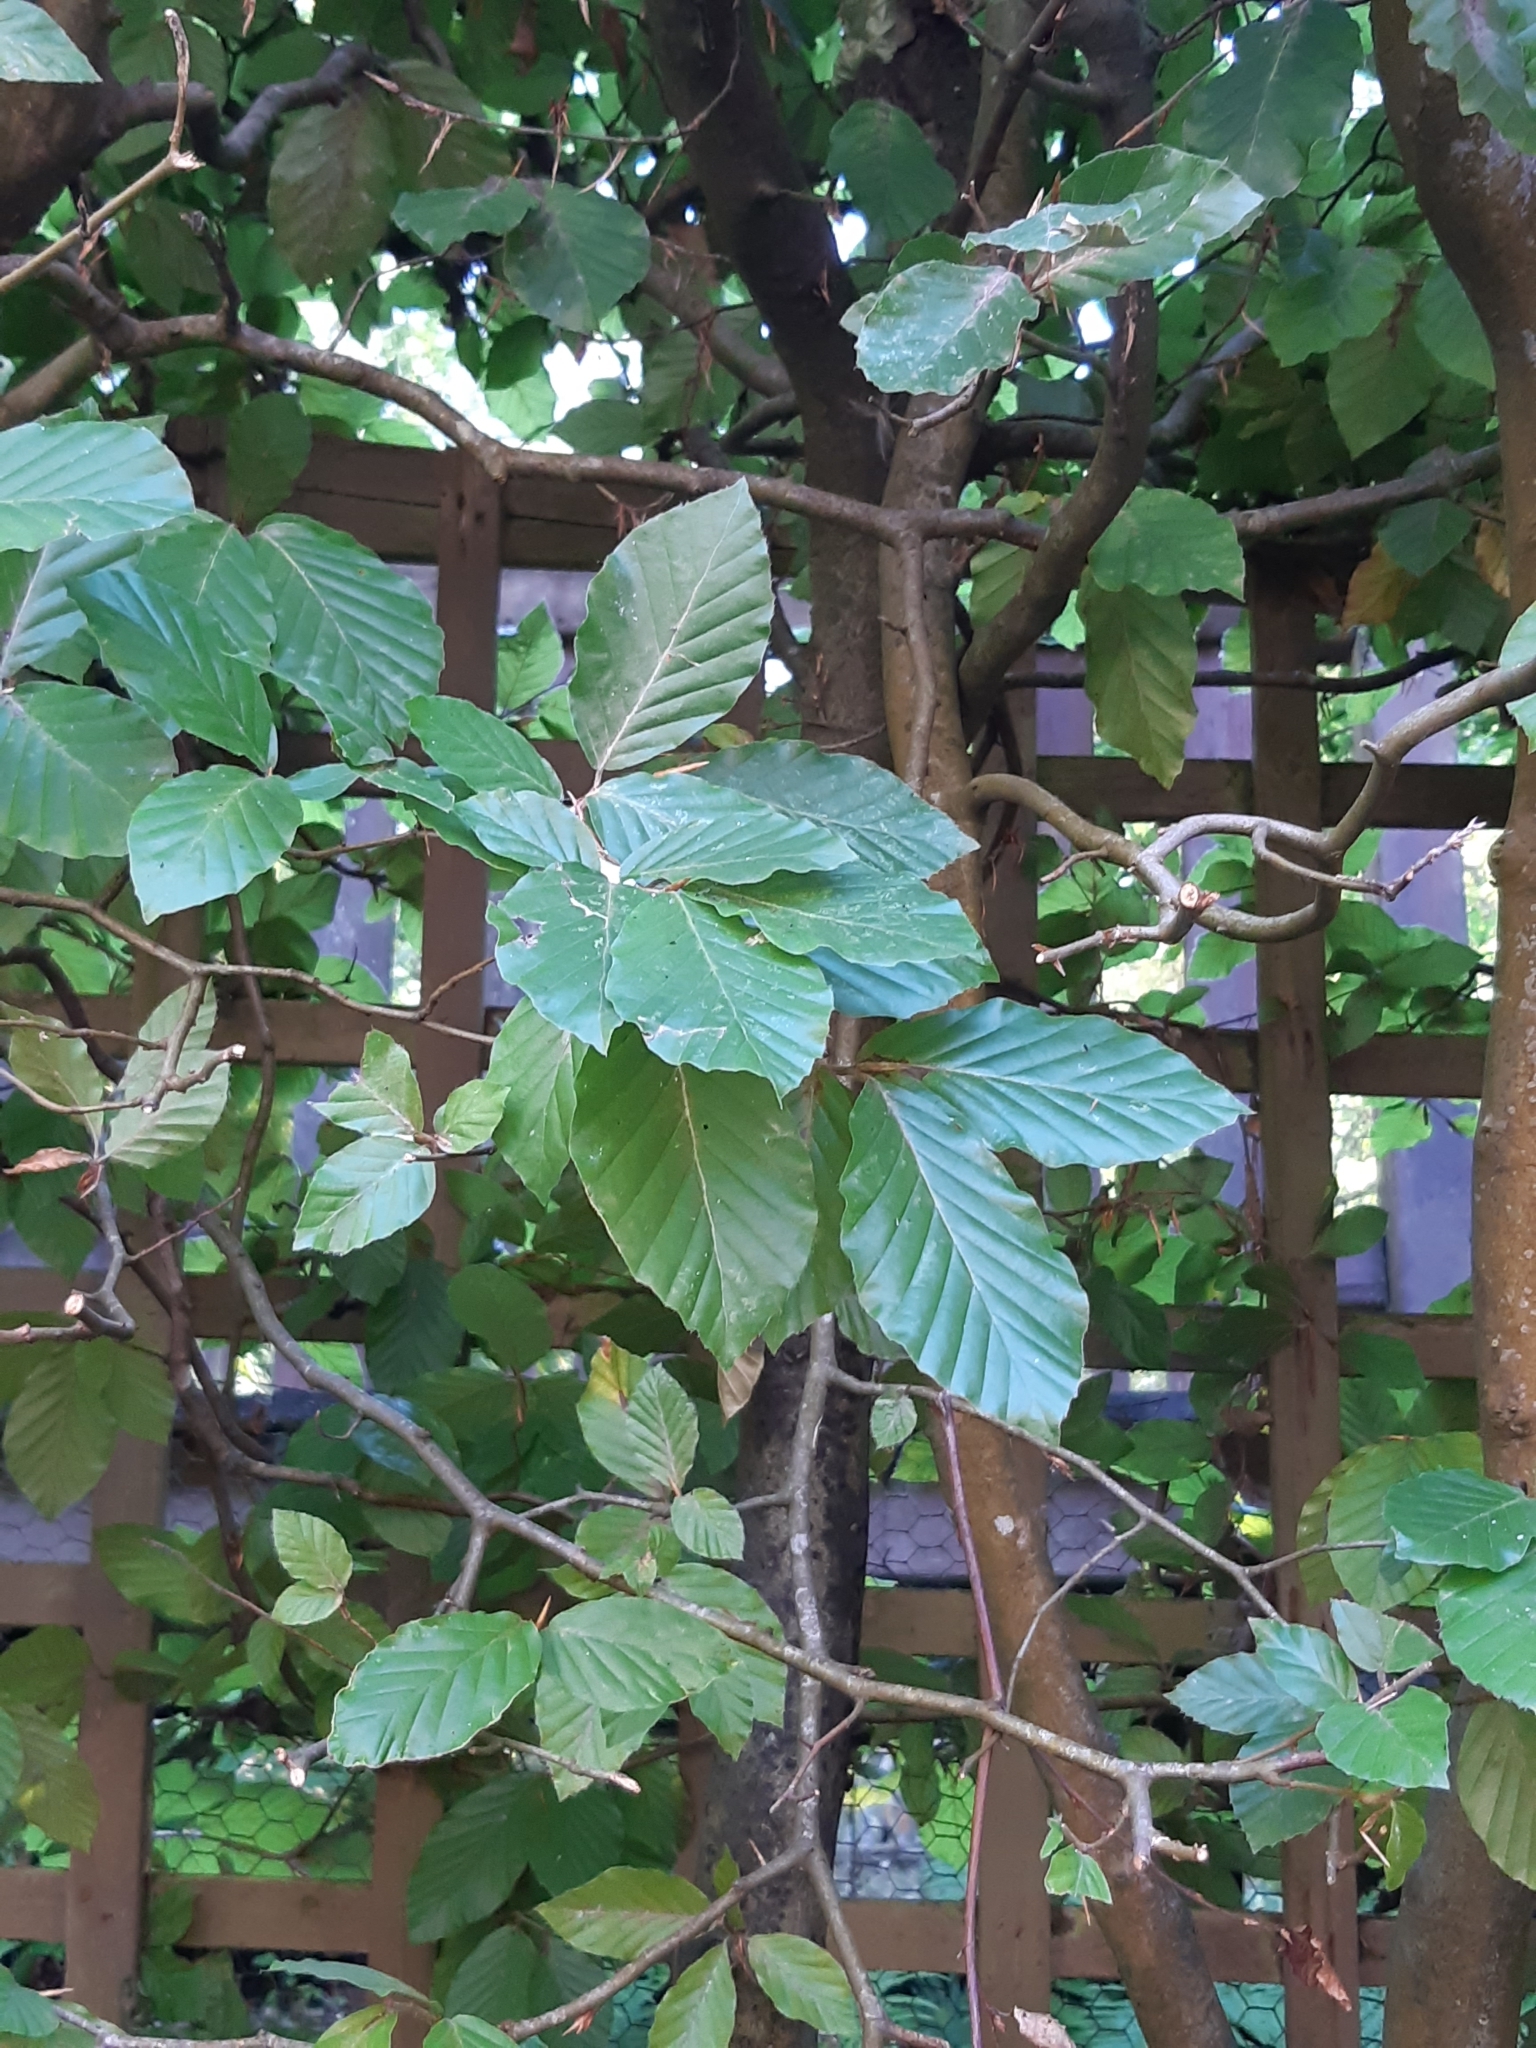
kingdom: Plantae
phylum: Tracheophyta
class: Magnoliopsida
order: Fagales
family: Fagaceae
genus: Fagus
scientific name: Fagus sylvatica
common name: Beech
